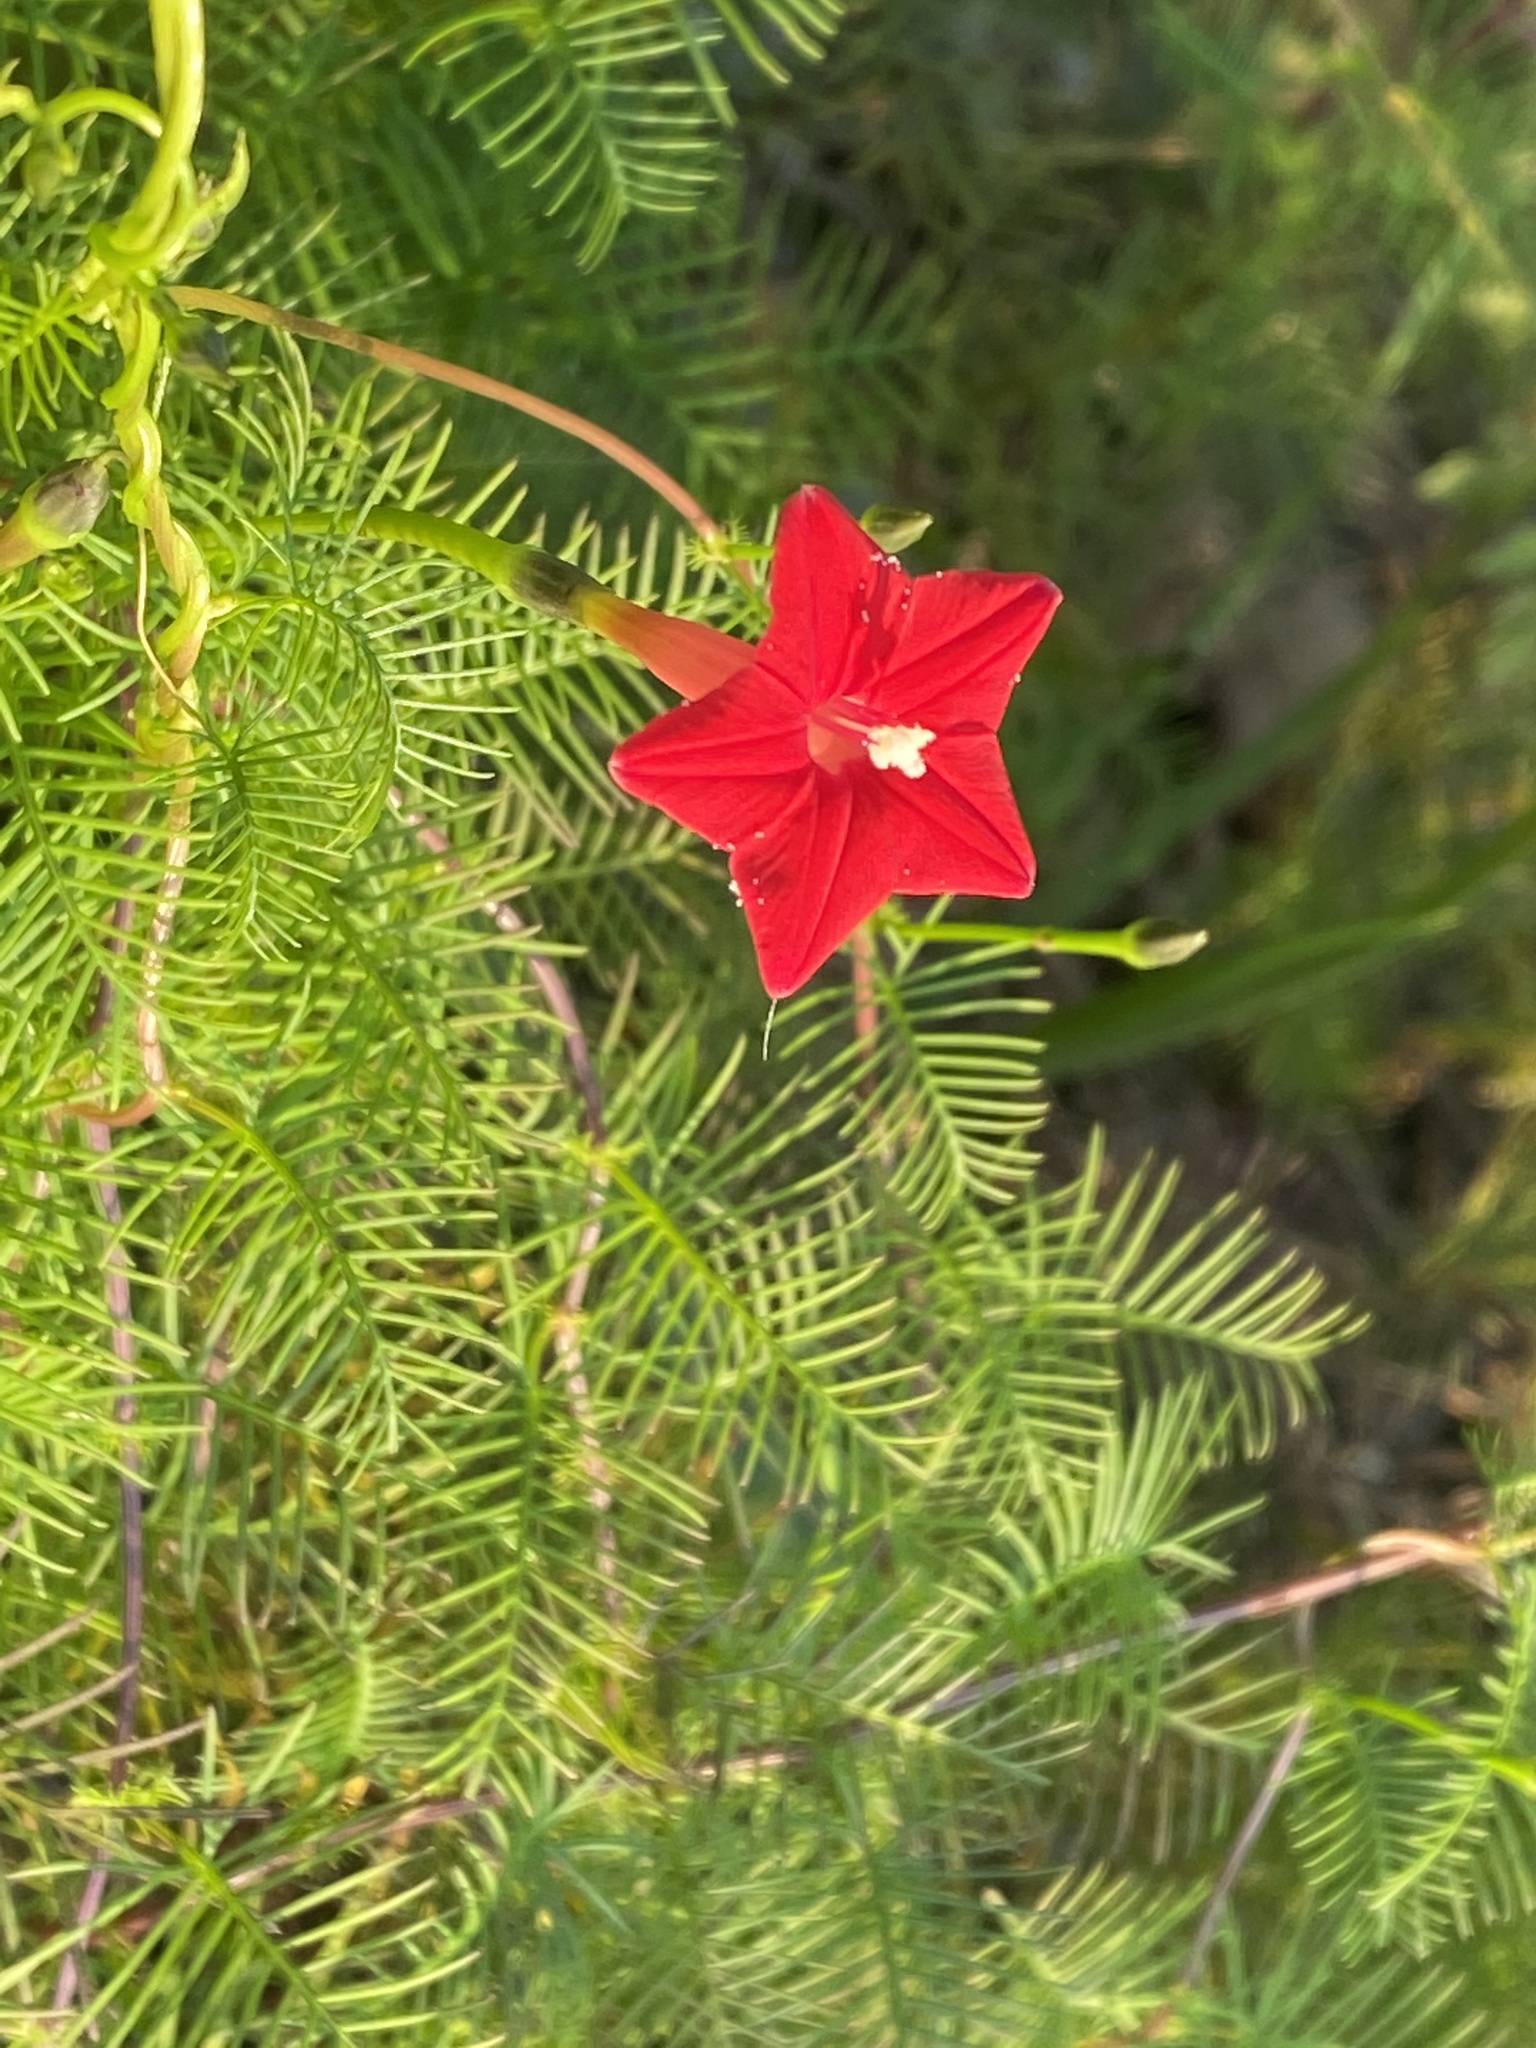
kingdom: Plantae
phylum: Tracheophyta
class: Magnoliopsida
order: Solanales
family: Convolvulaceae
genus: Ipomoea
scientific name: Ipomoea quamoclit
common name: Cypress vine
